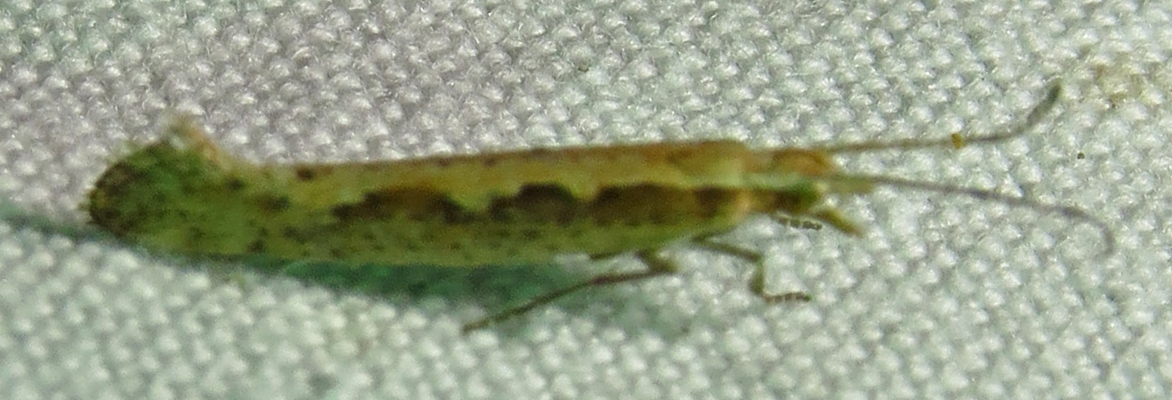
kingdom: Animalia
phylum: Arthropoda
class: Insecta
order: Lepidoptera
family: Plutellidae
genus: Plutella
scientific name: Plutella xylostella
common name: Diamond-back moth
